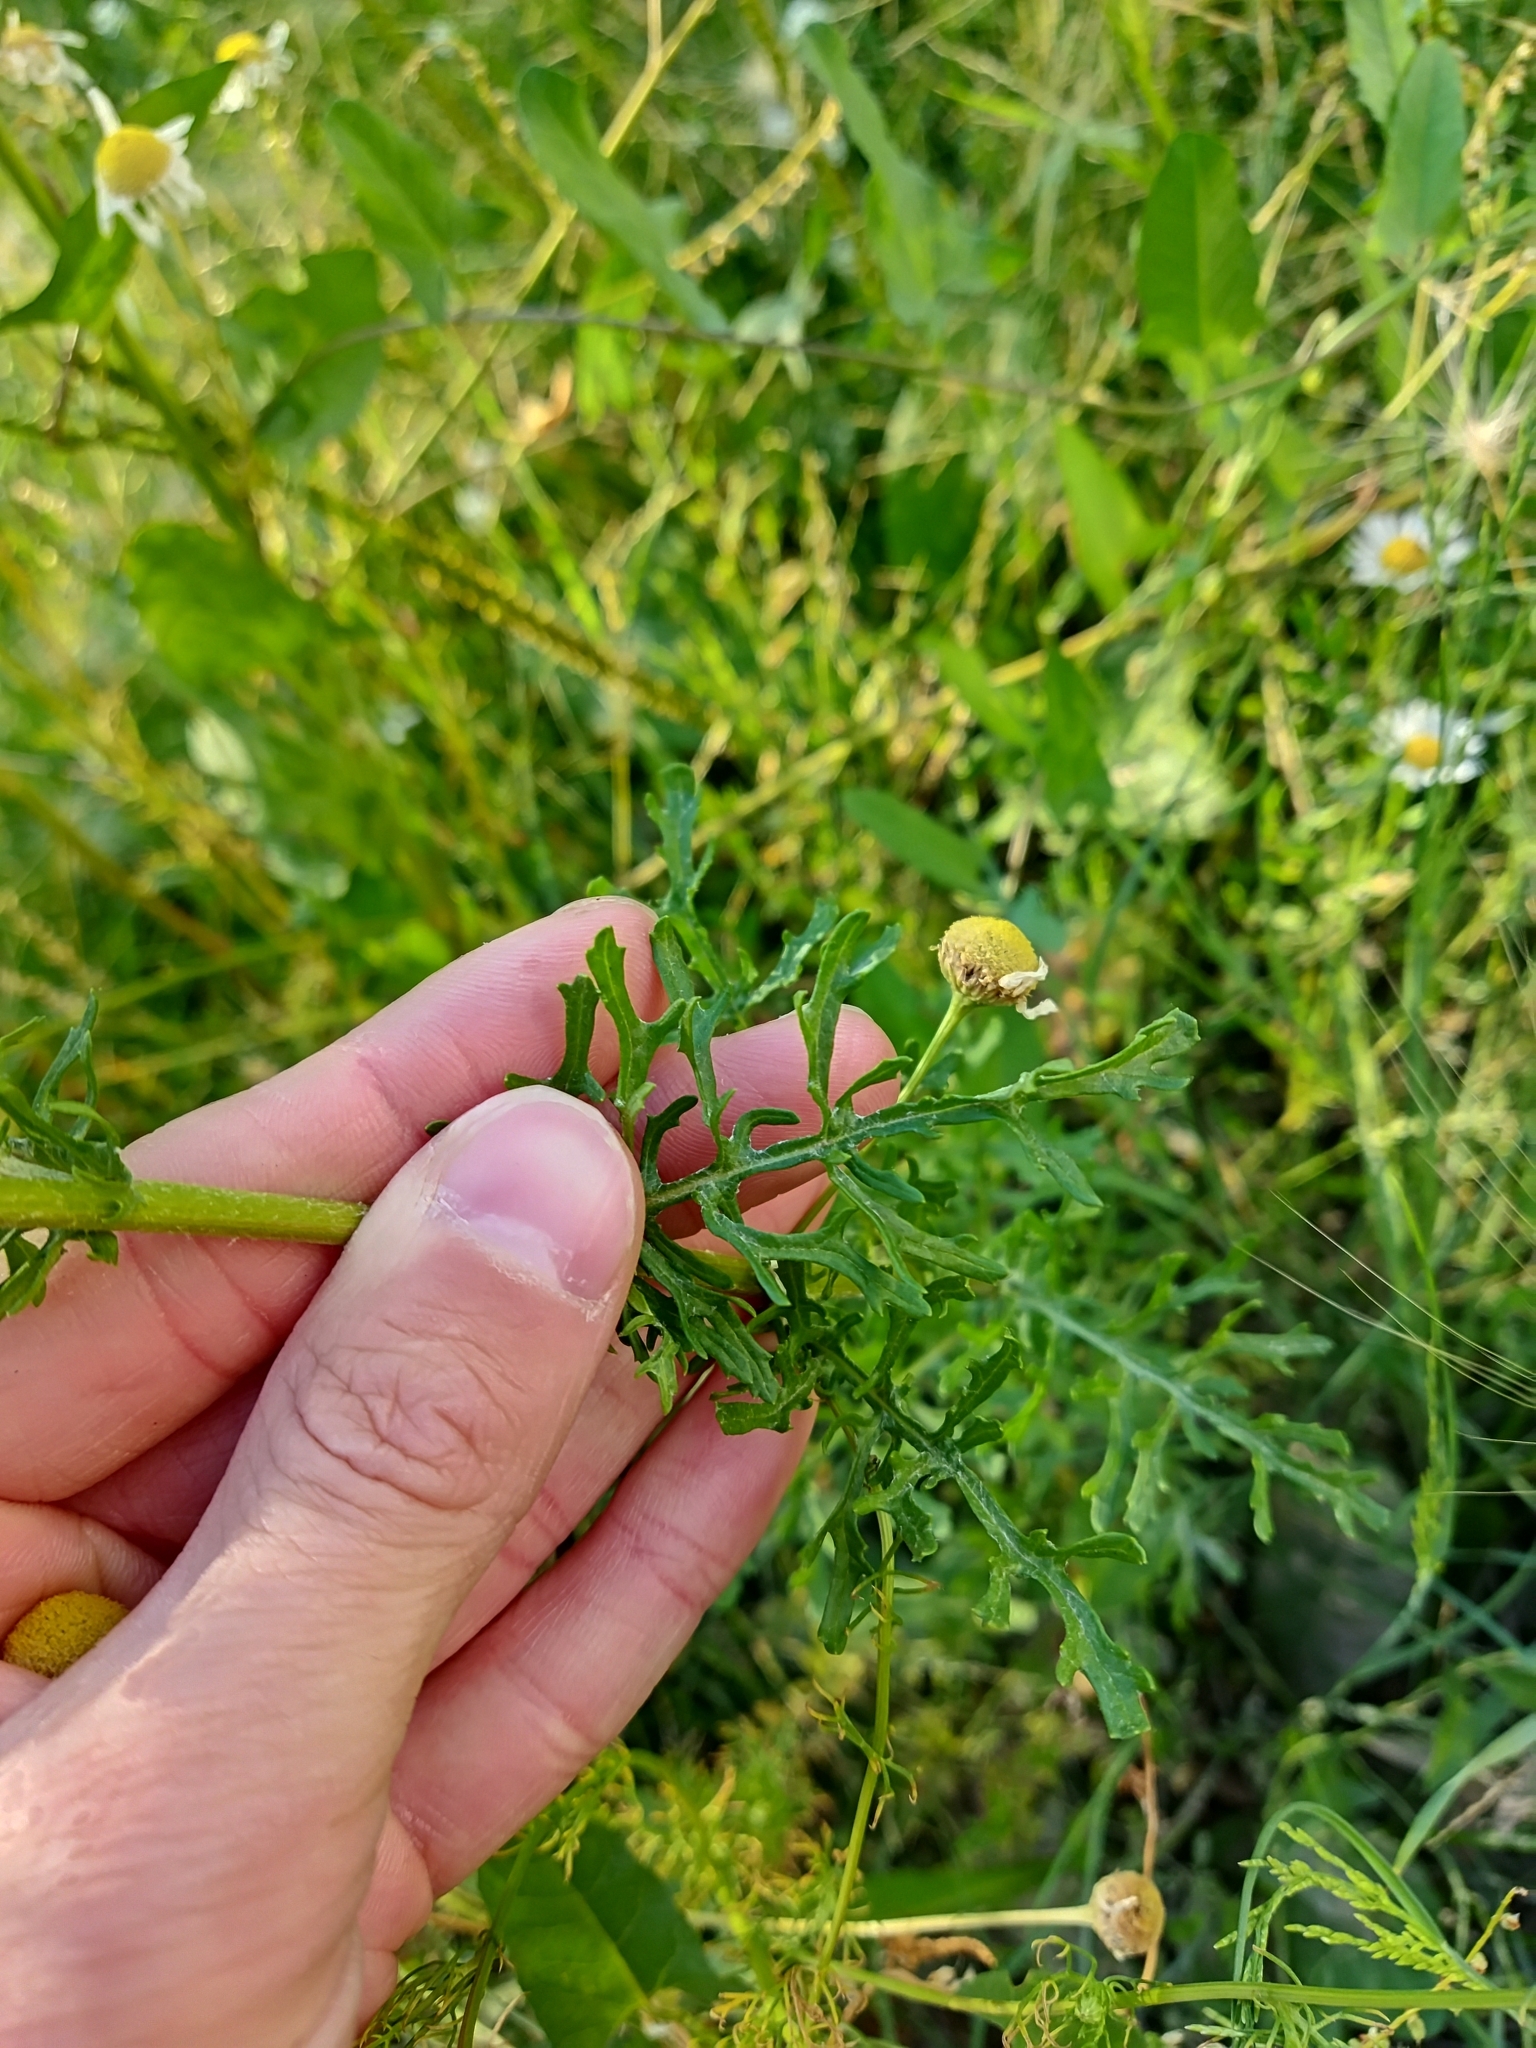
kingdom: Plantae
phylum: Tracheophyta
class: Magnoliopsida
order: Asterales
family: Asteraceae
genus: Jacobaea
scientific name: Jacobaea vulgaris
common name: Stinking willie
